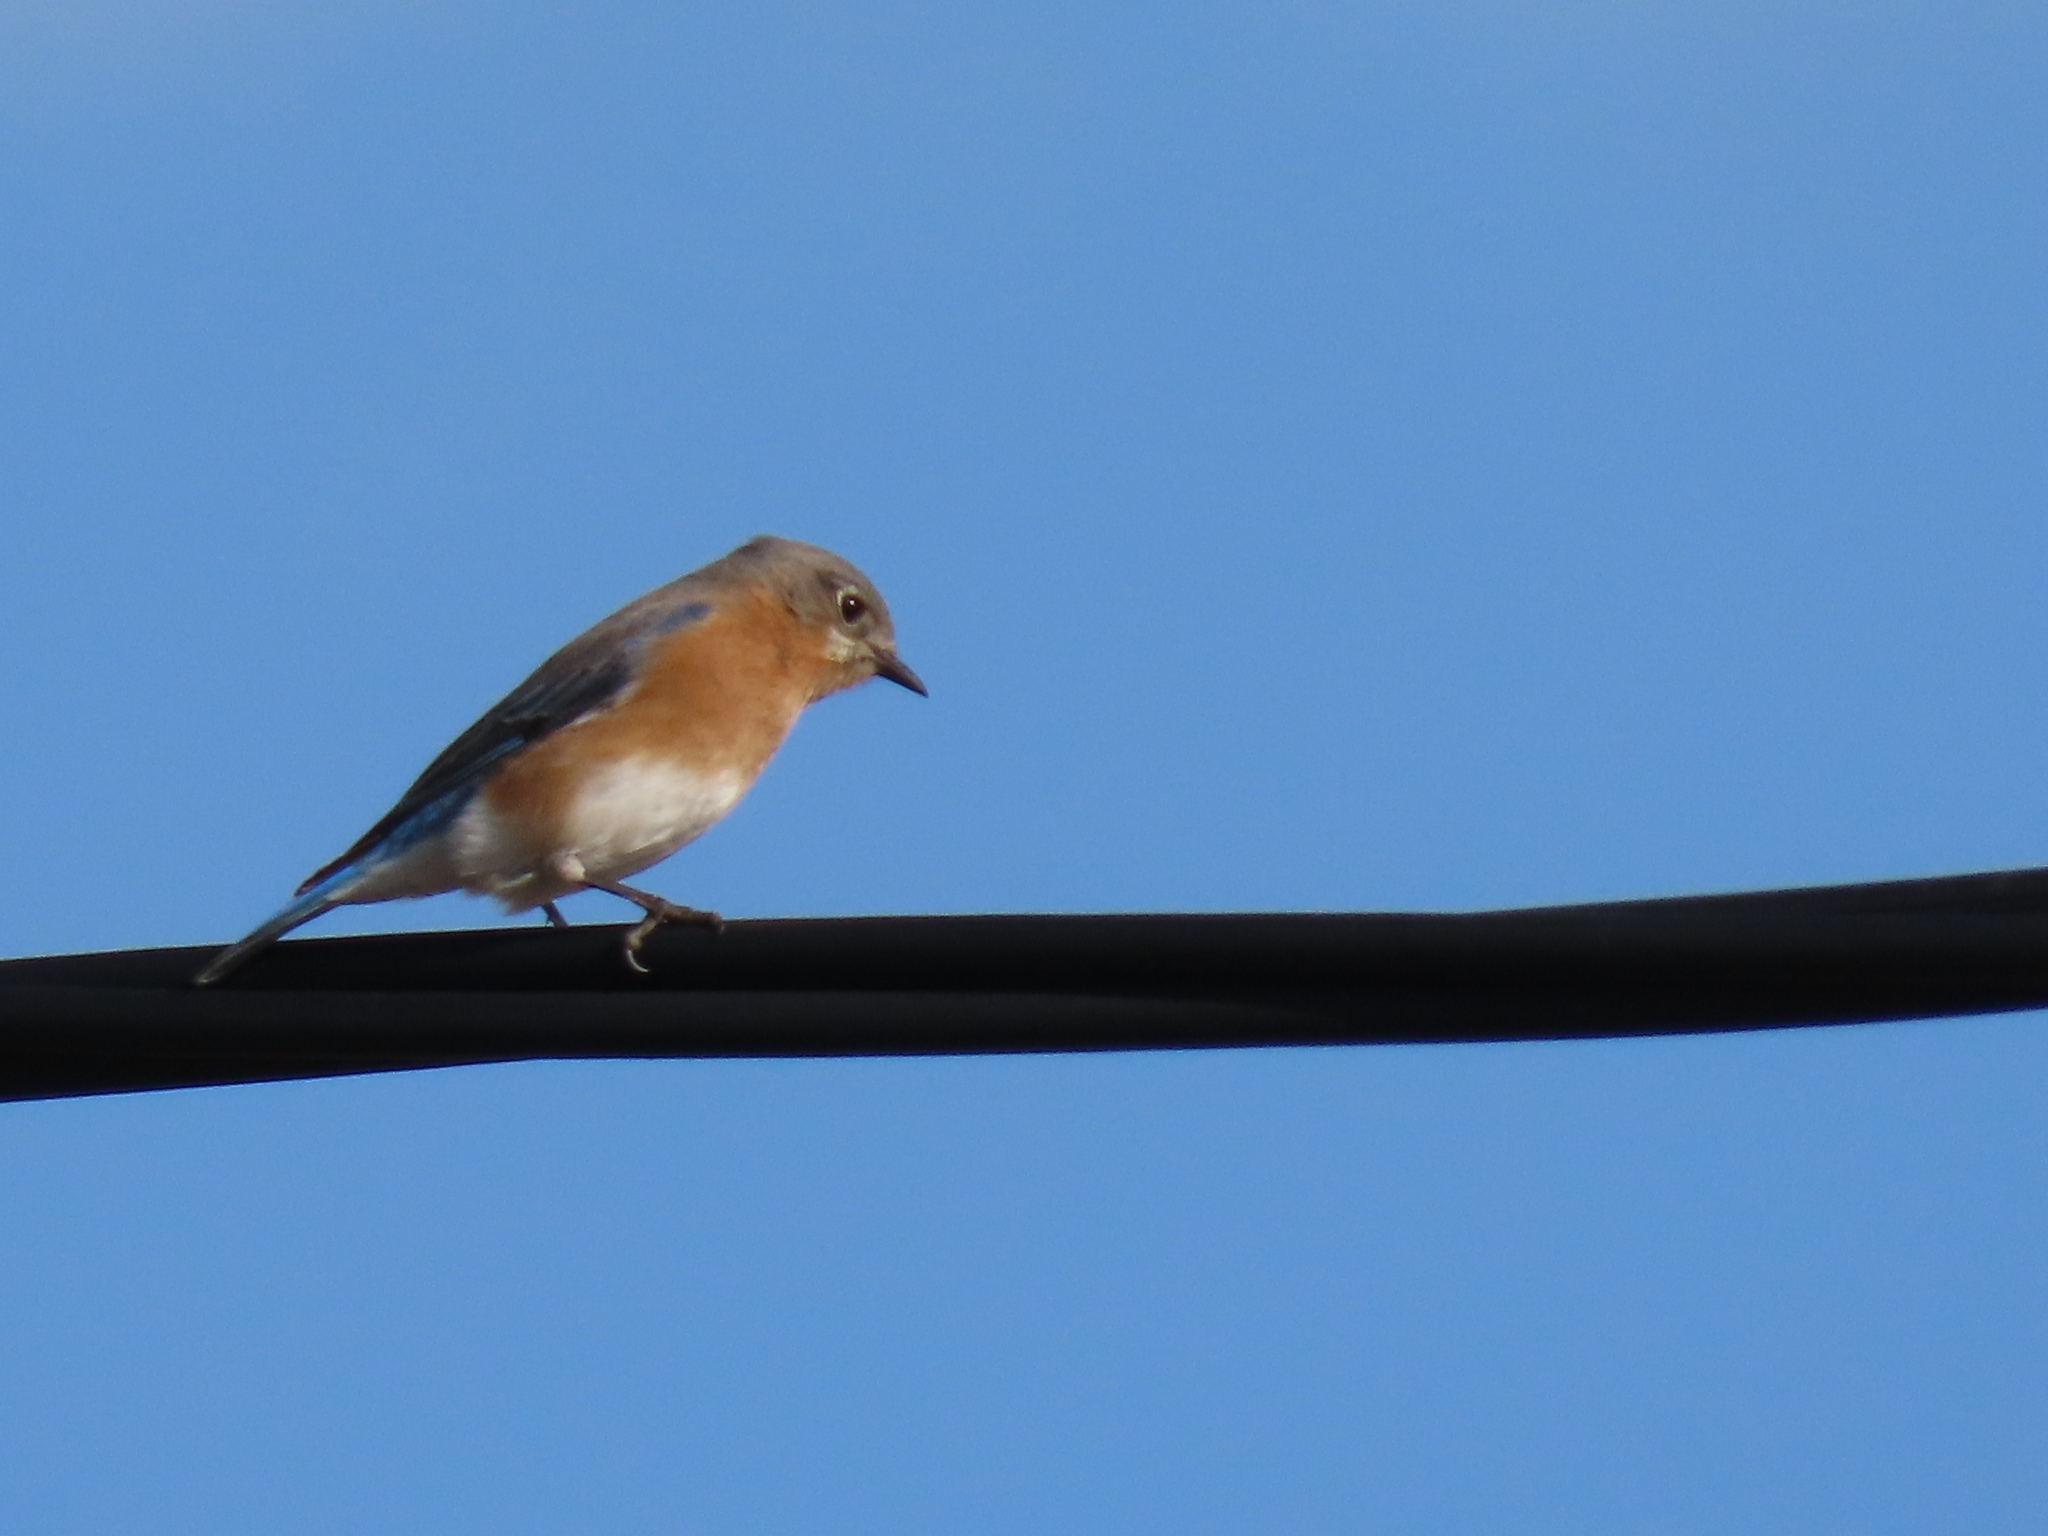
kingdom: Animalia
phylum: Chordata
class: Aves
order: Passeriformes
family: Turdidae
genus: Sialia
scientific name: Sialia sialis
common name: Eastern bluebird
